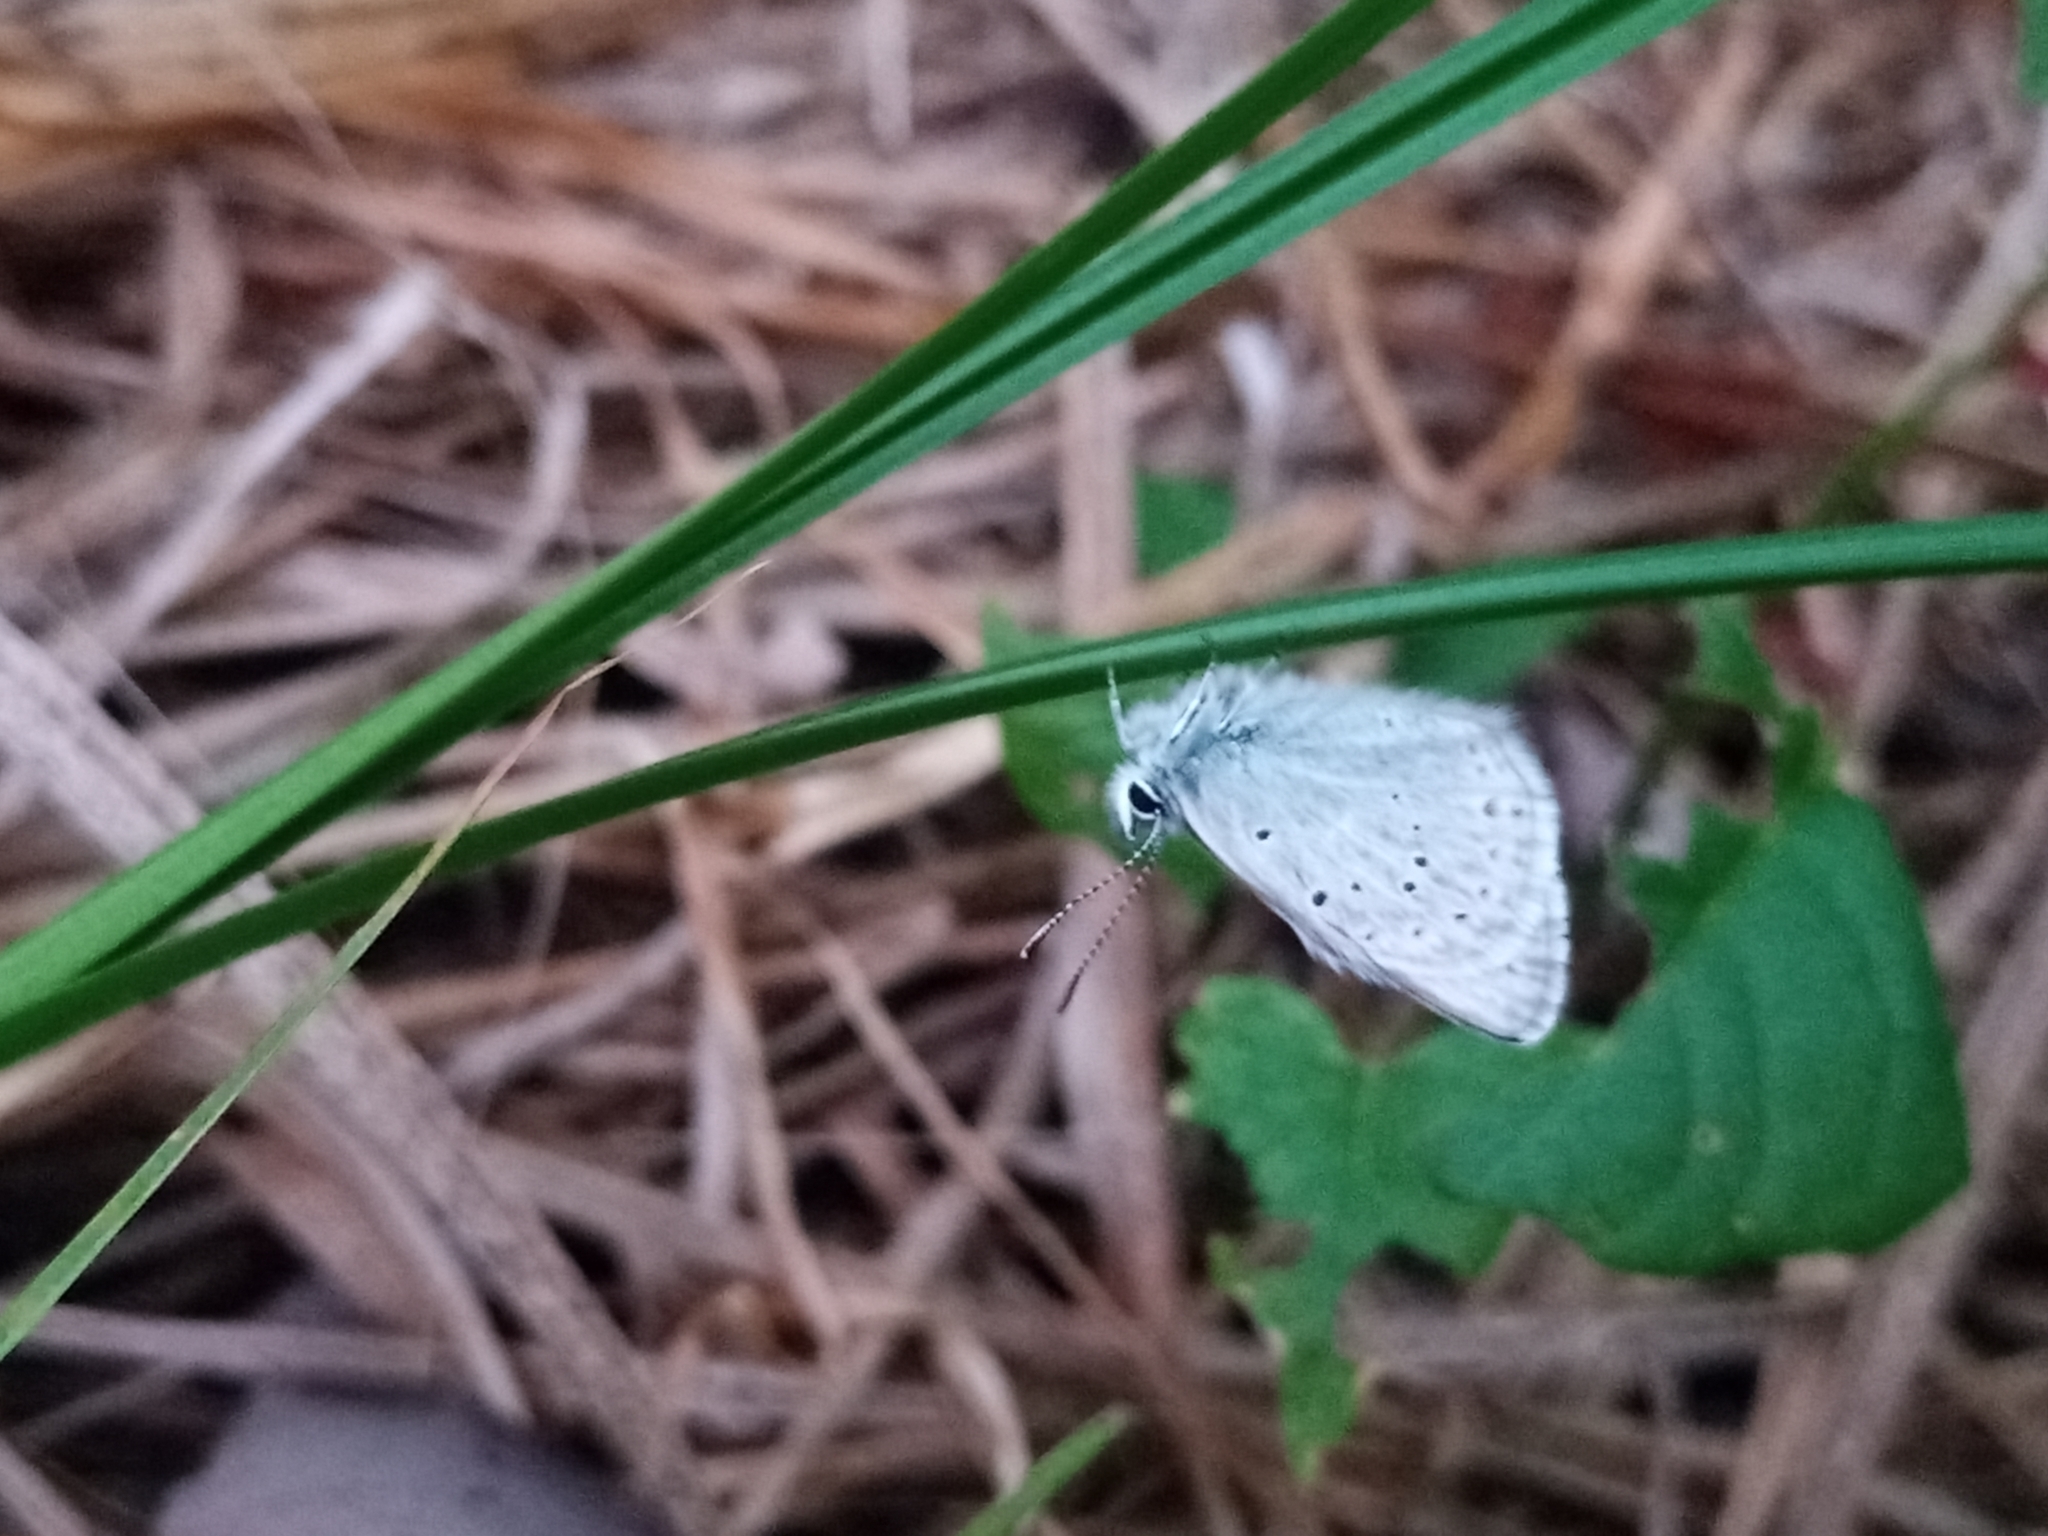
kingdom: Animalia
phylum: Arthropoda
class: Insecta
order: Lepidoptera
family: Lycaenidae
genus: Icaricia
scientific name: Icaricia saepiolus
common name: Greenish blue
